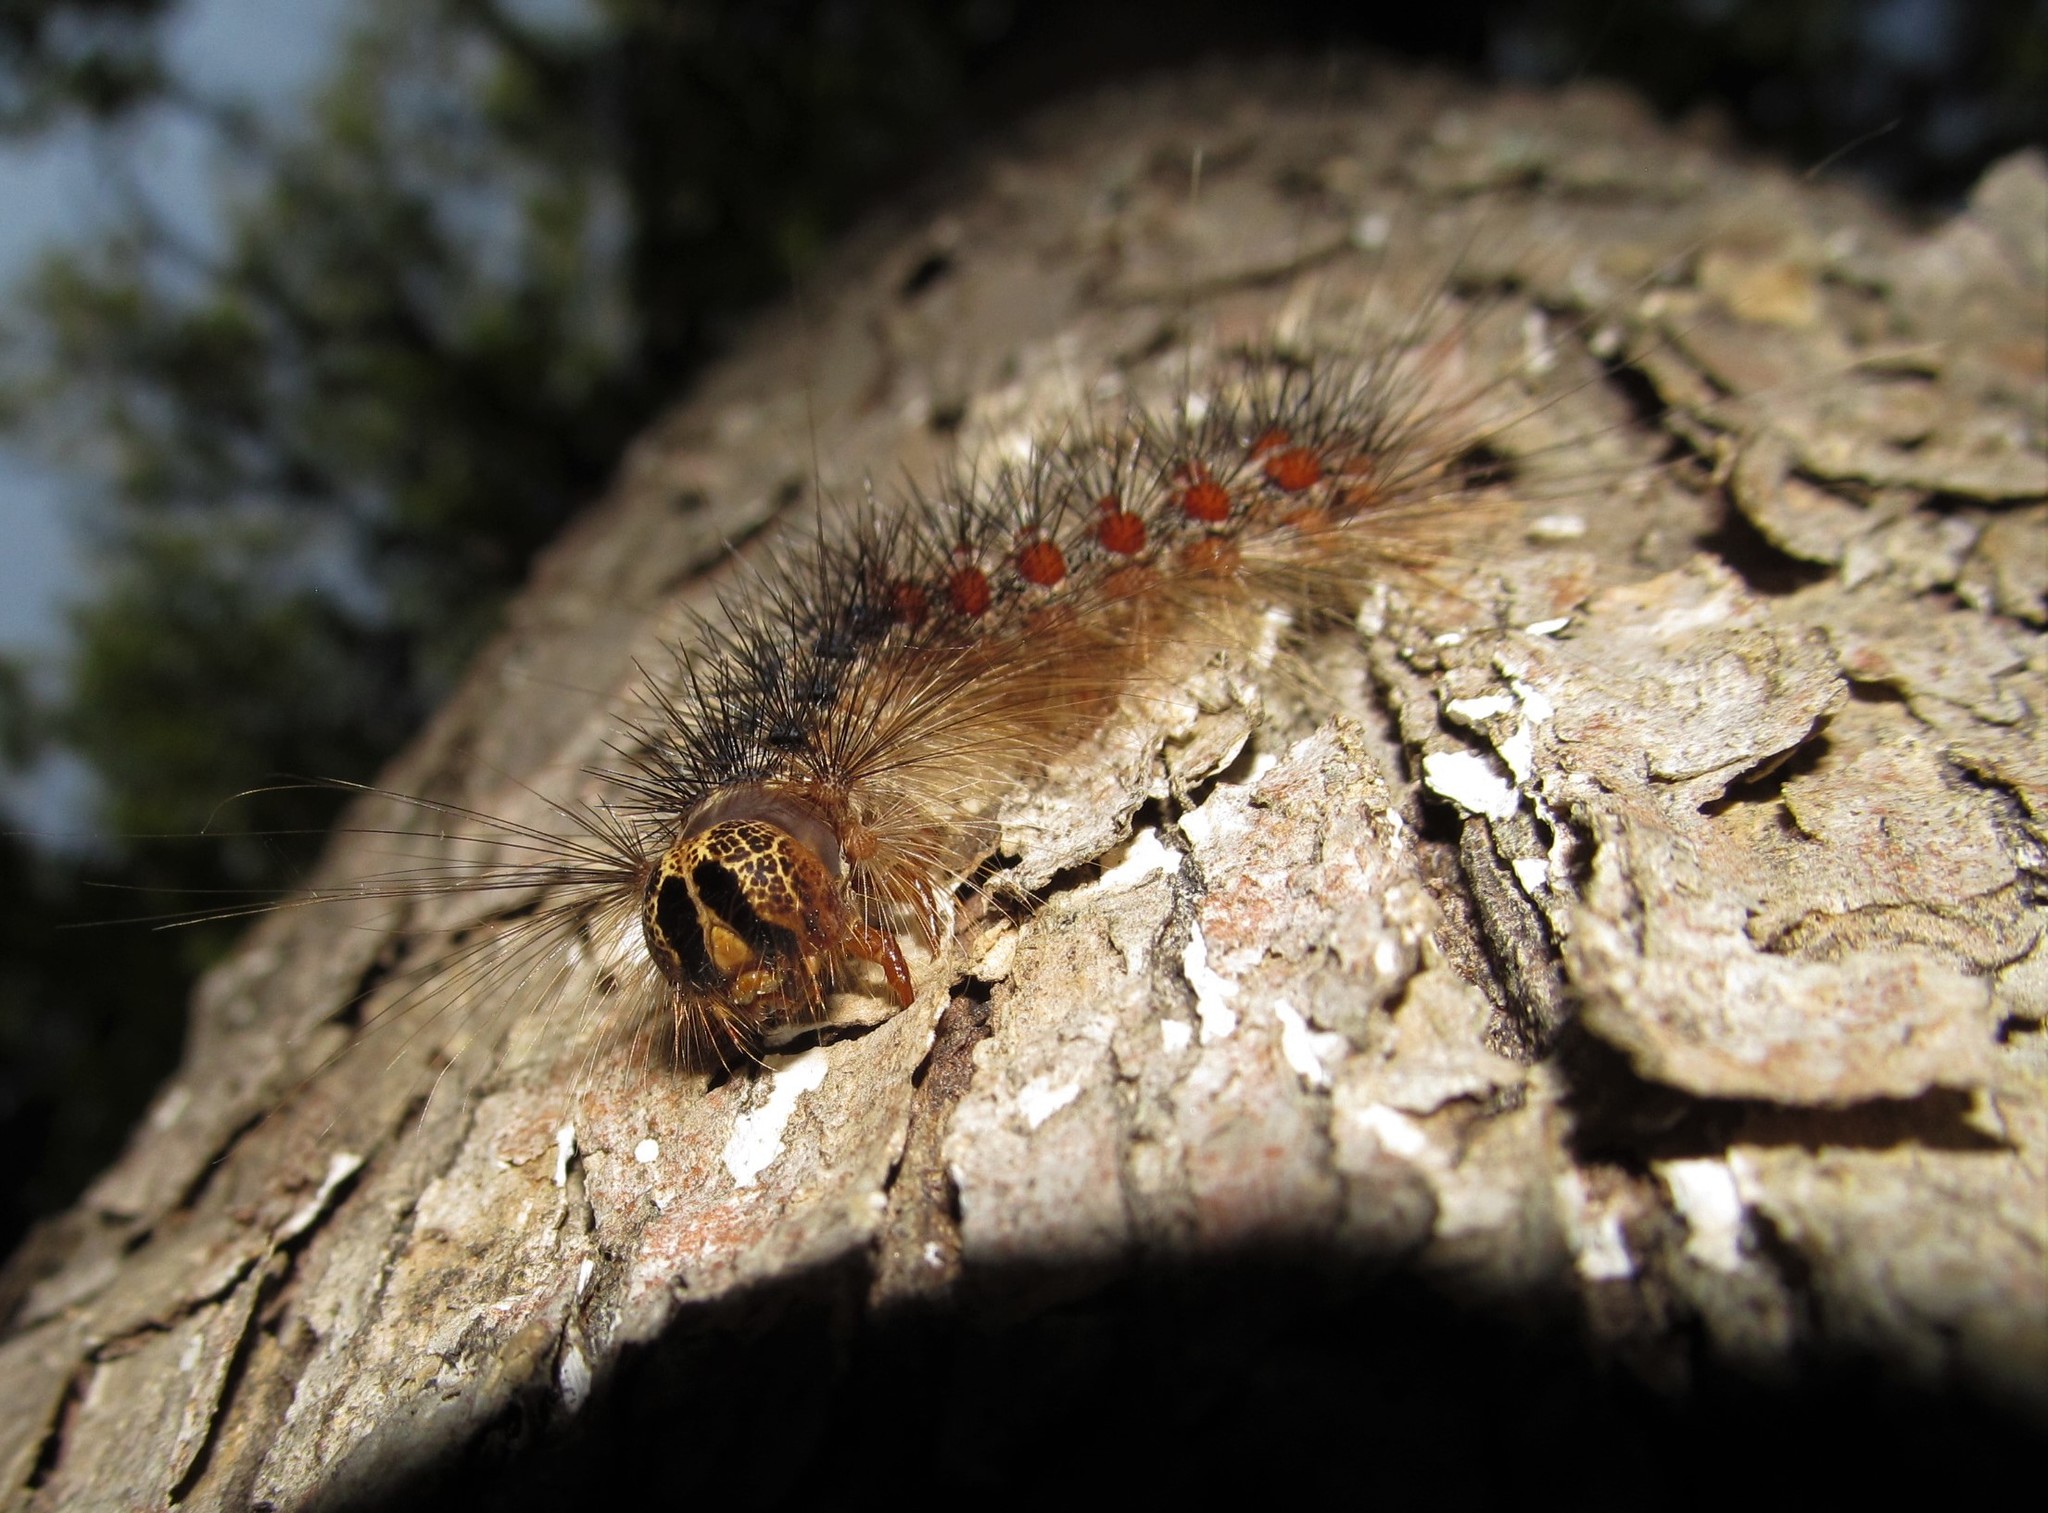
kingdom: Animalia
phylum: Arthropoda
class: Insecta
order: Lepidoptera
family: Erebidae
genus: Lymantria
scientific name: Lymantria dispar
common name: Gypsy moth
